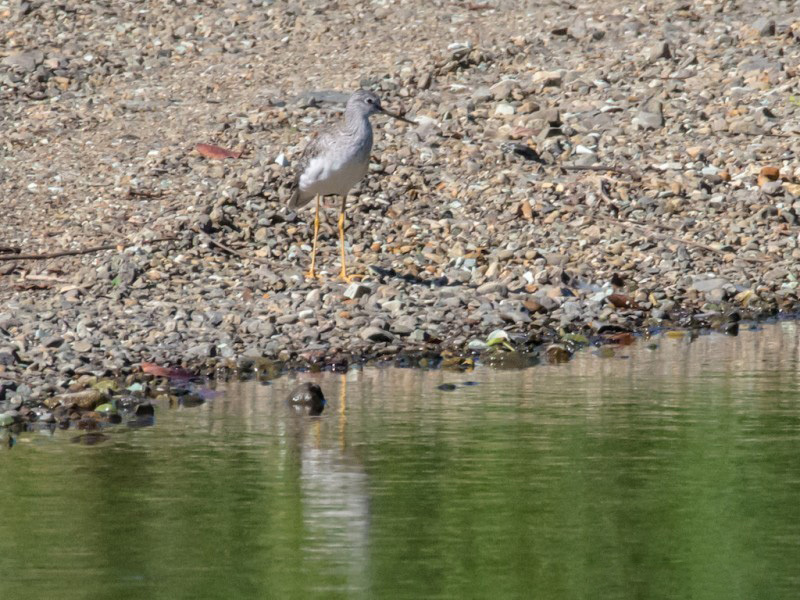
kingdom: Animalia
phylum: Chordata
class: Aves
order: Charadriiformes
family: Scolopacidae
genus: Tringa
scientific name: Tringa melanoleuca
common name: Greater yellowlegs
